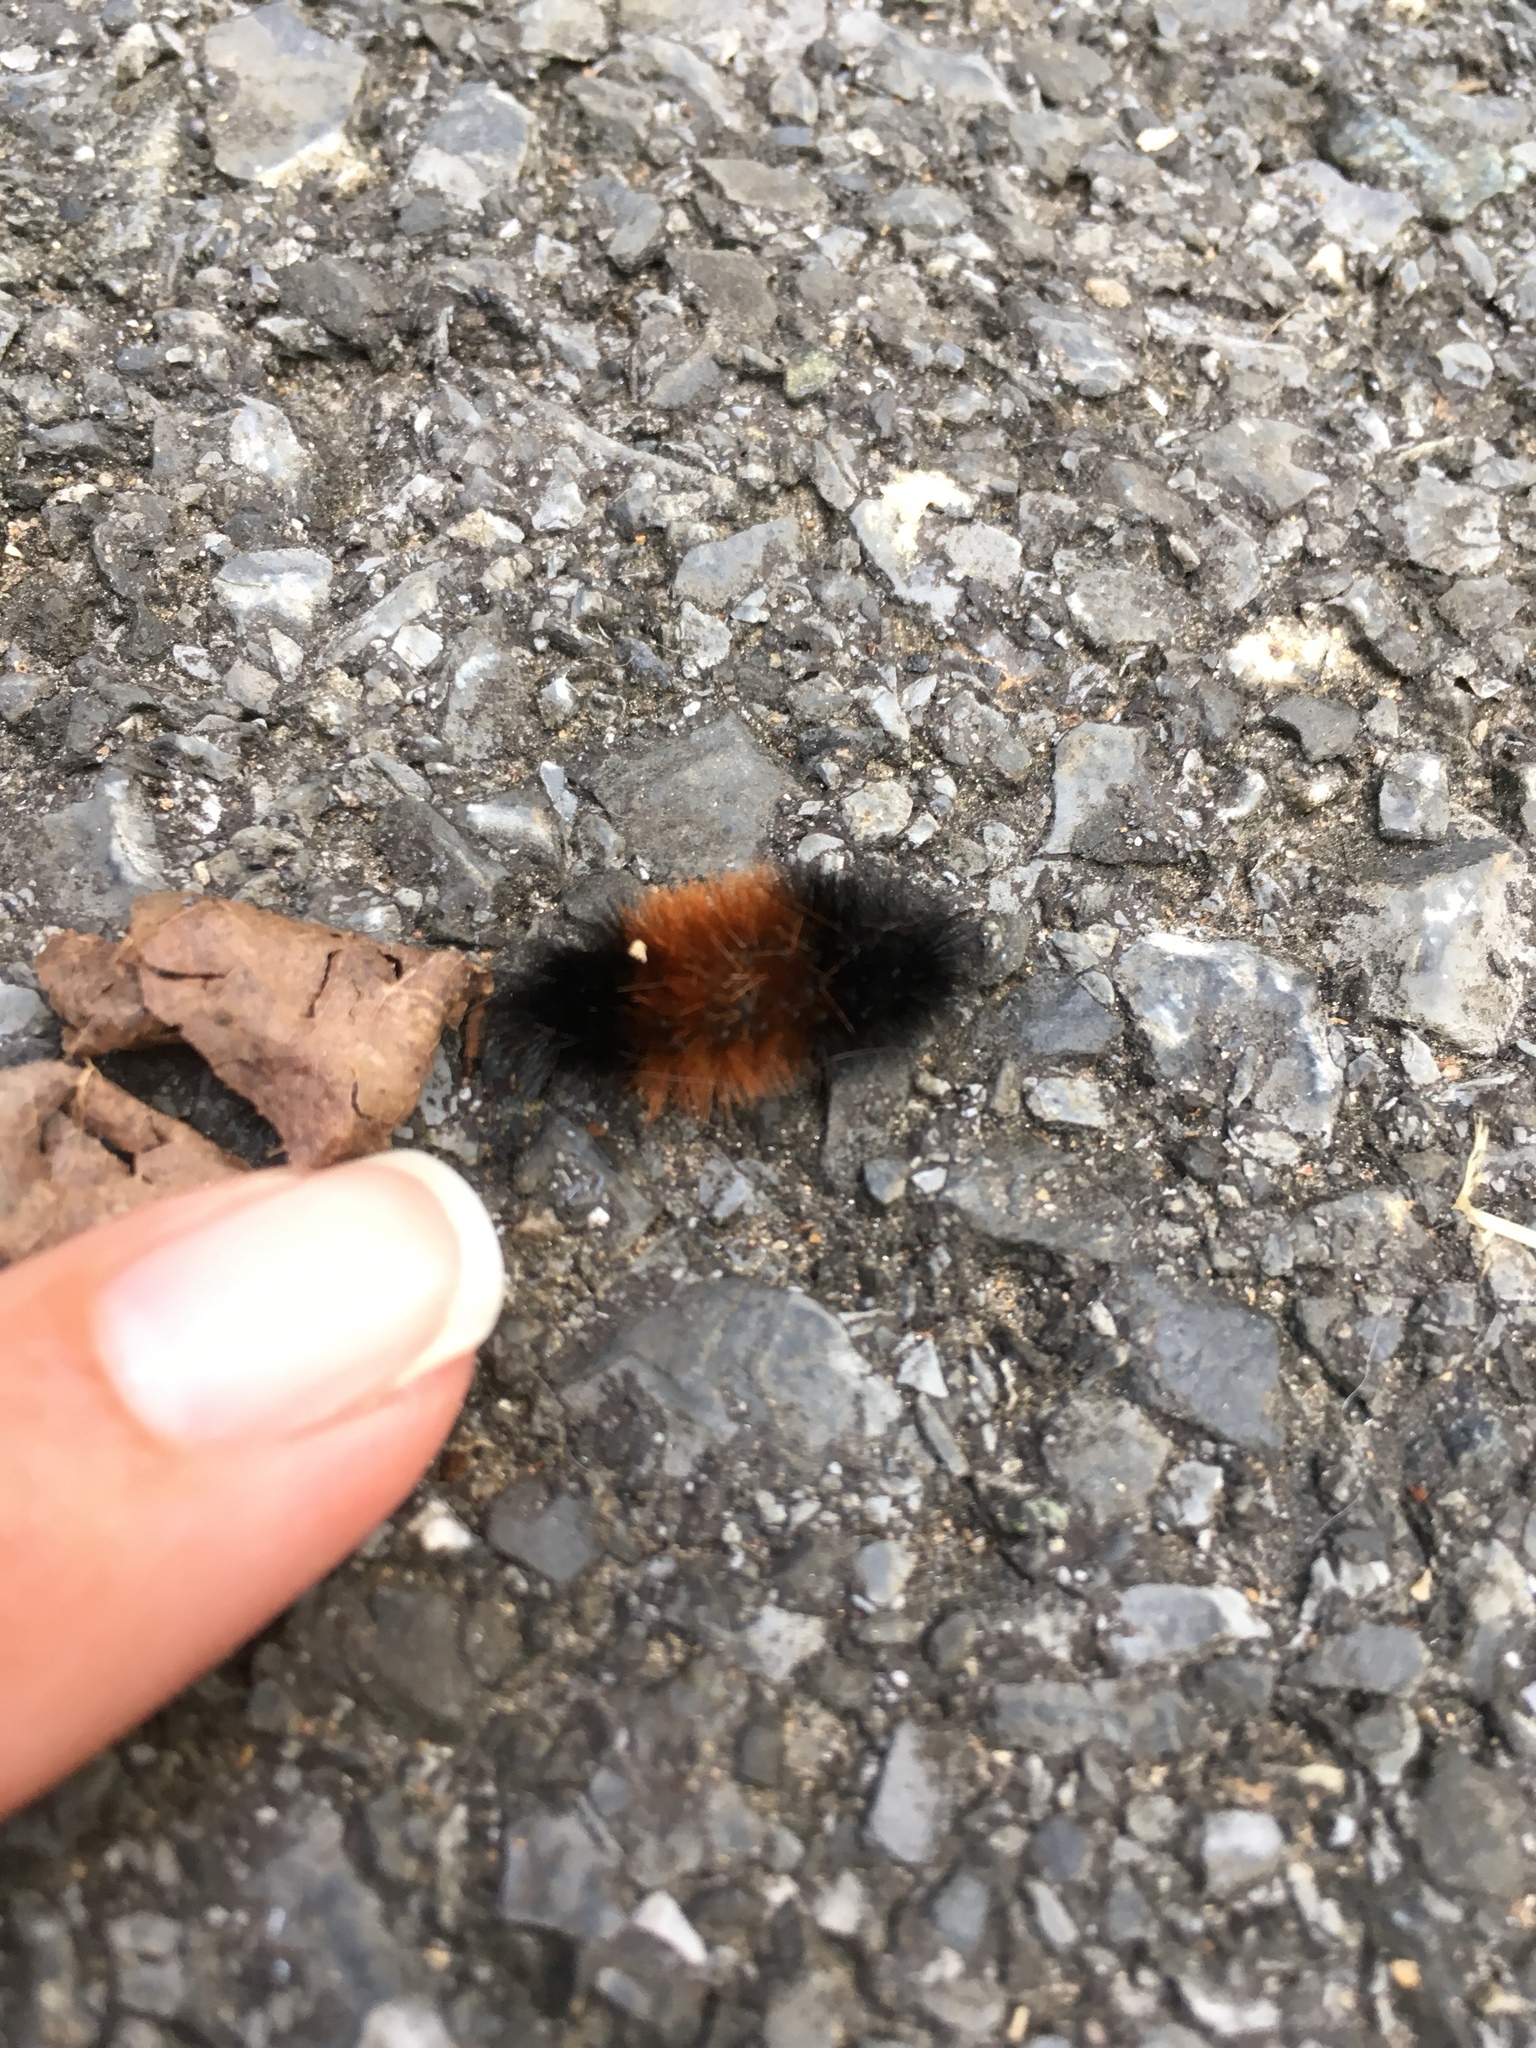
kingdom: Animalia
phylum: Arthropoda
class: Insecta
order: Lepidoptera
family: Erebidae
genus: Pyrrharctia
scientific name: Pyrrharctia isabella
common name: Isabella tiger moth
